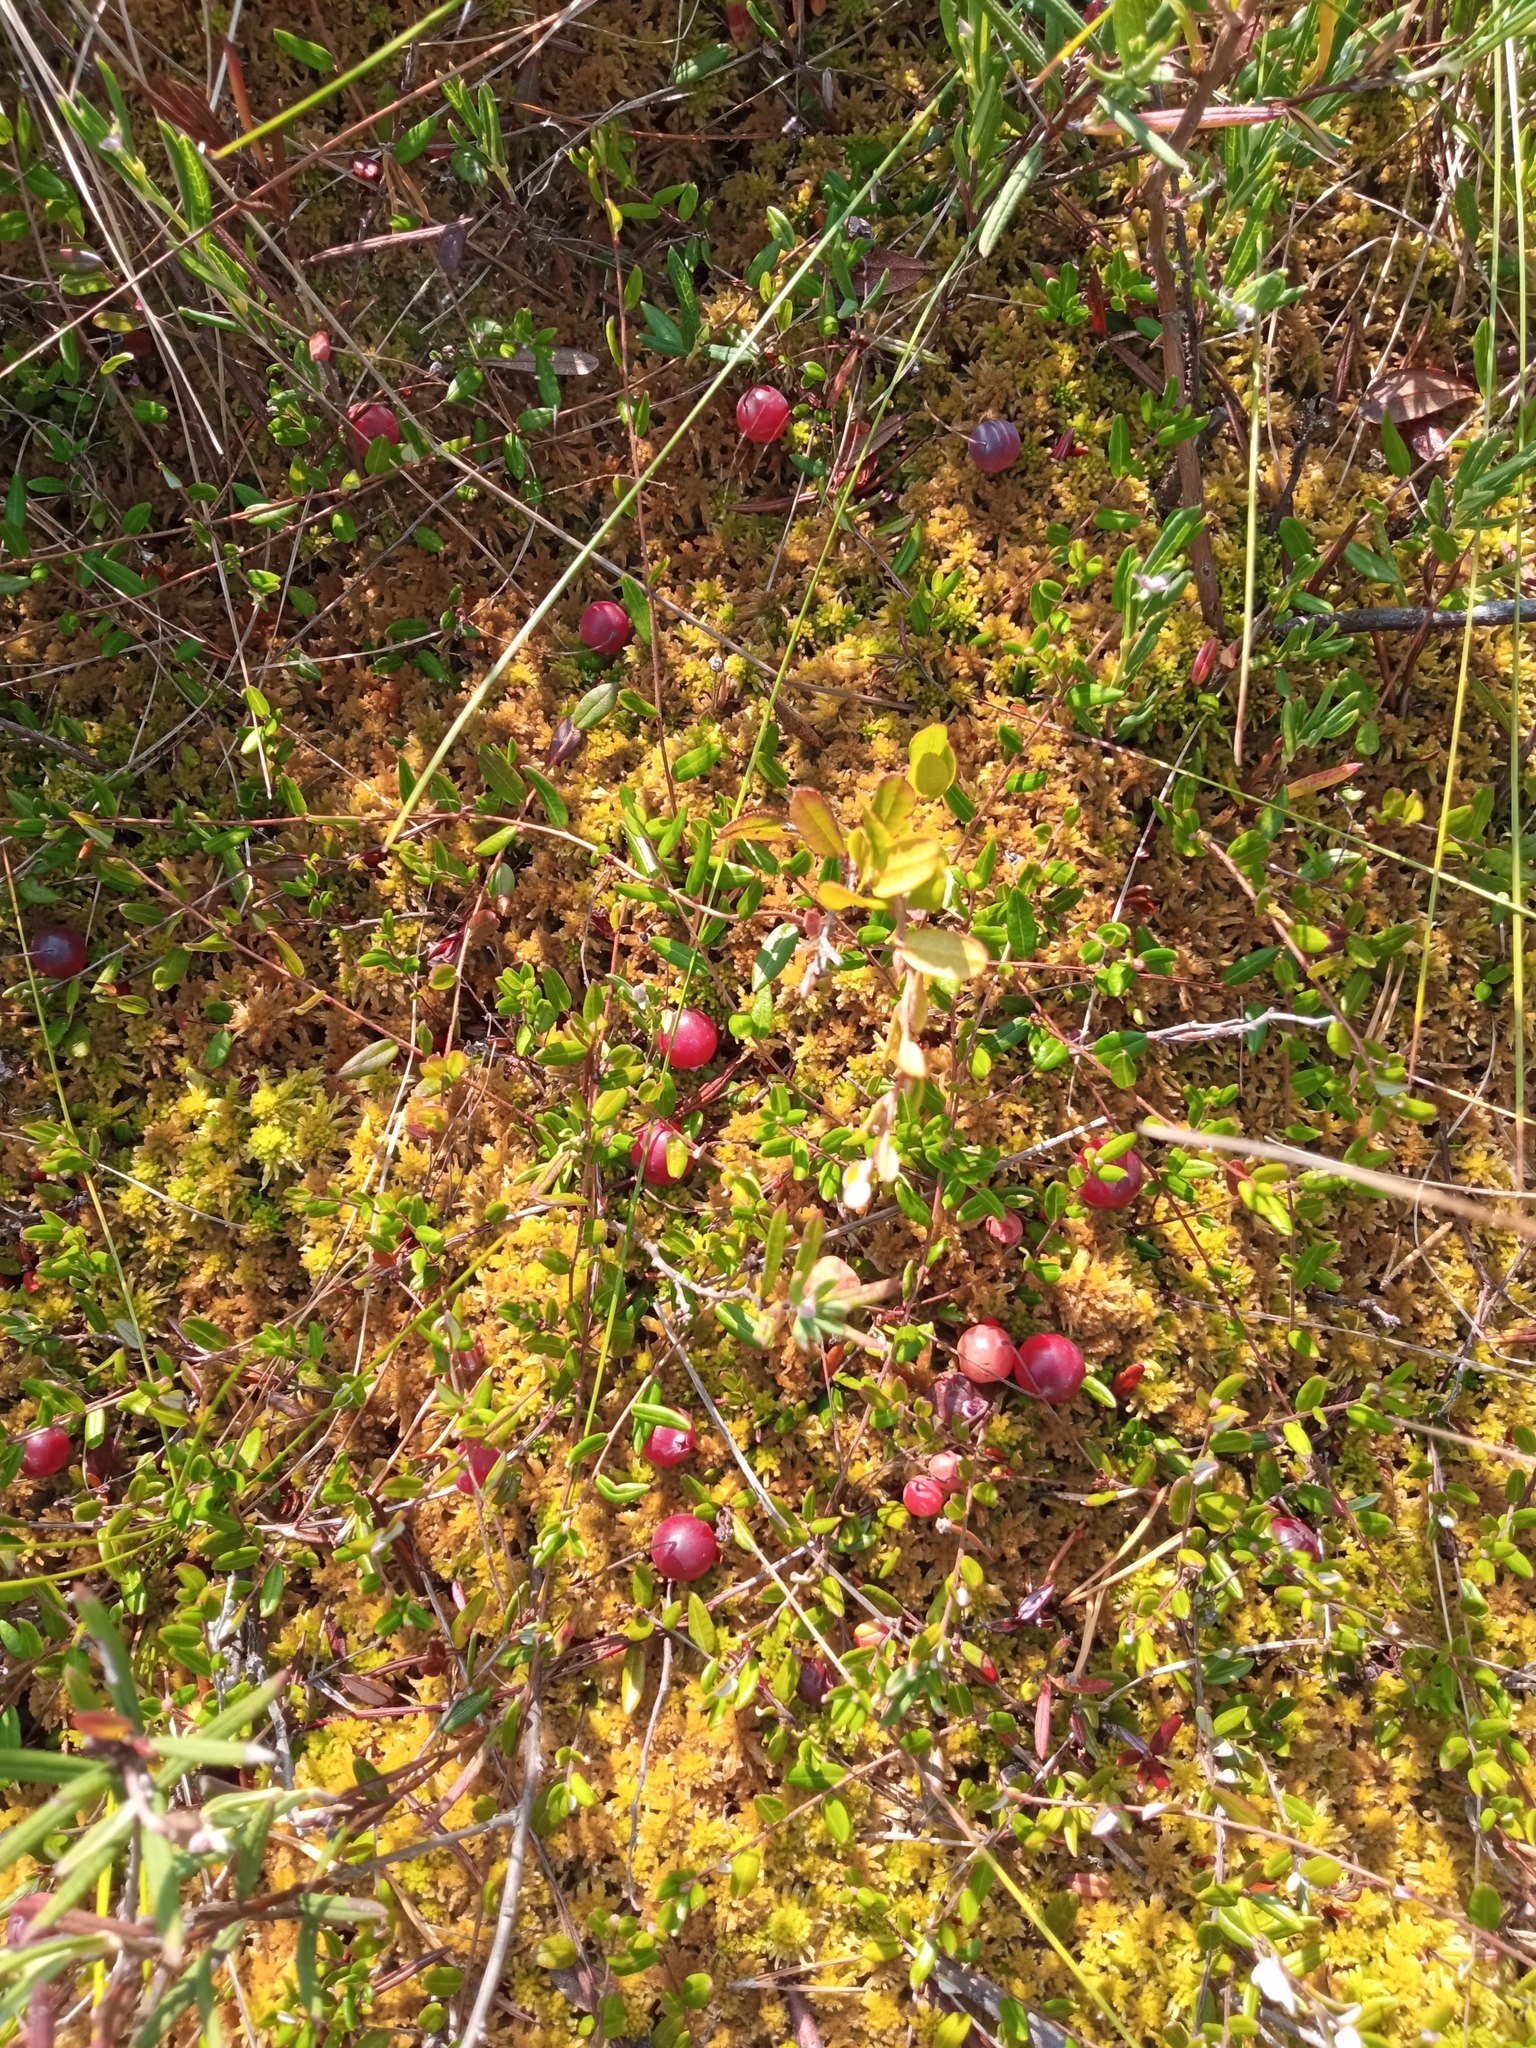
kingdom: Plantae
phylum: Tracheophyta
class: Magnoliopsida
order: Ericales
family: Ericaceae
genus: Vaccinium
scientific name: Vaccinium oxycoccos
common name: Cranberry
